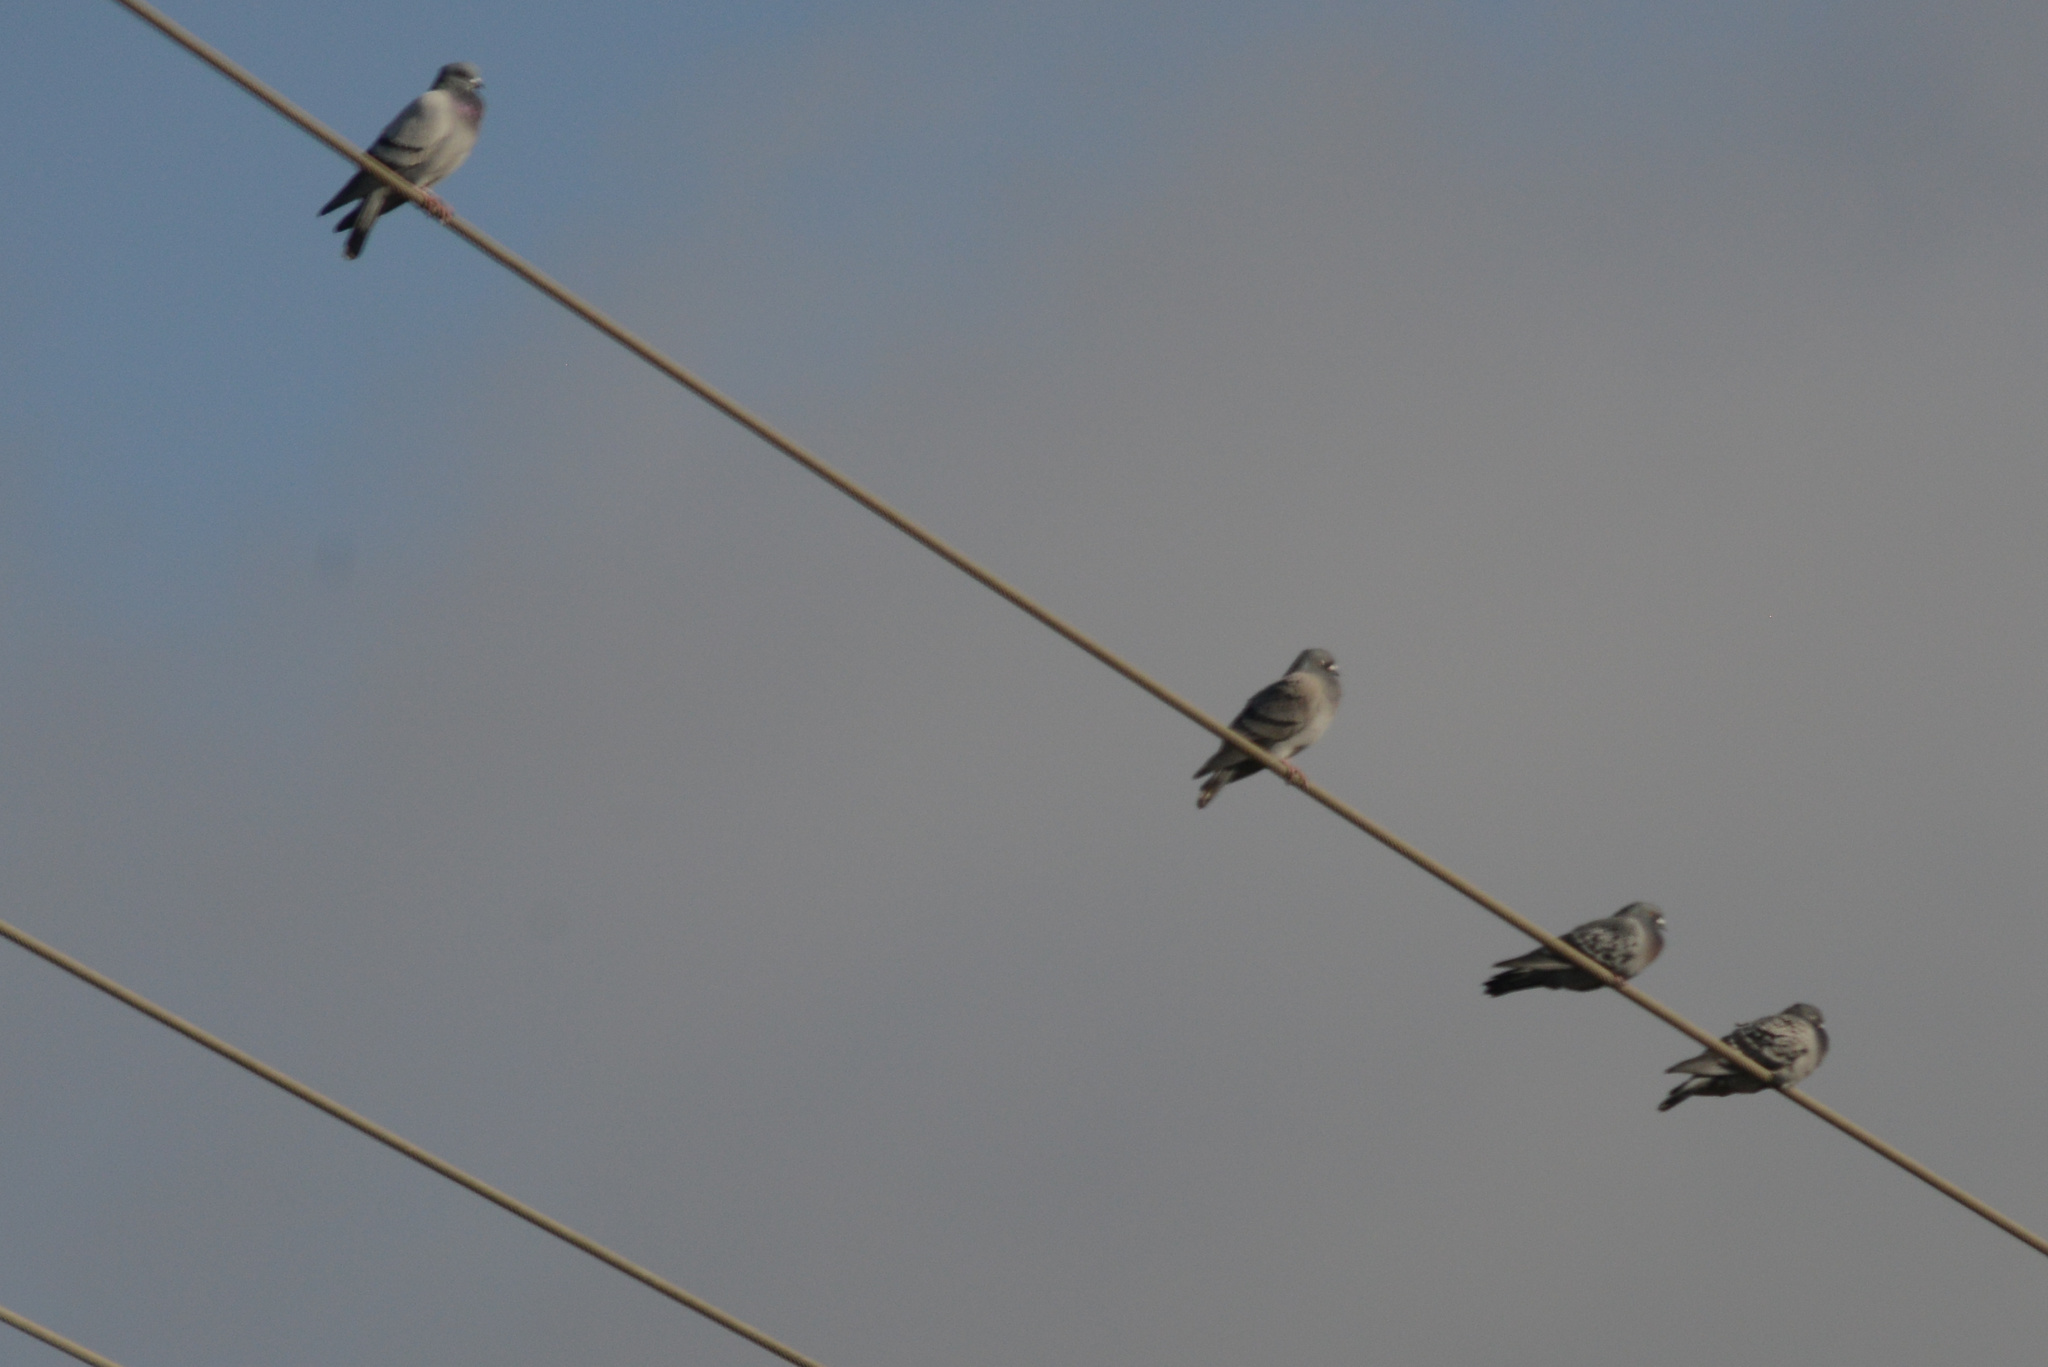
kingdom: Animalia
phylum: Chordata
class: Aves
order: Columbiformes
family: Columbidae
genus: Columba
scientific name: Columba livia
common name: Rock pigeon
